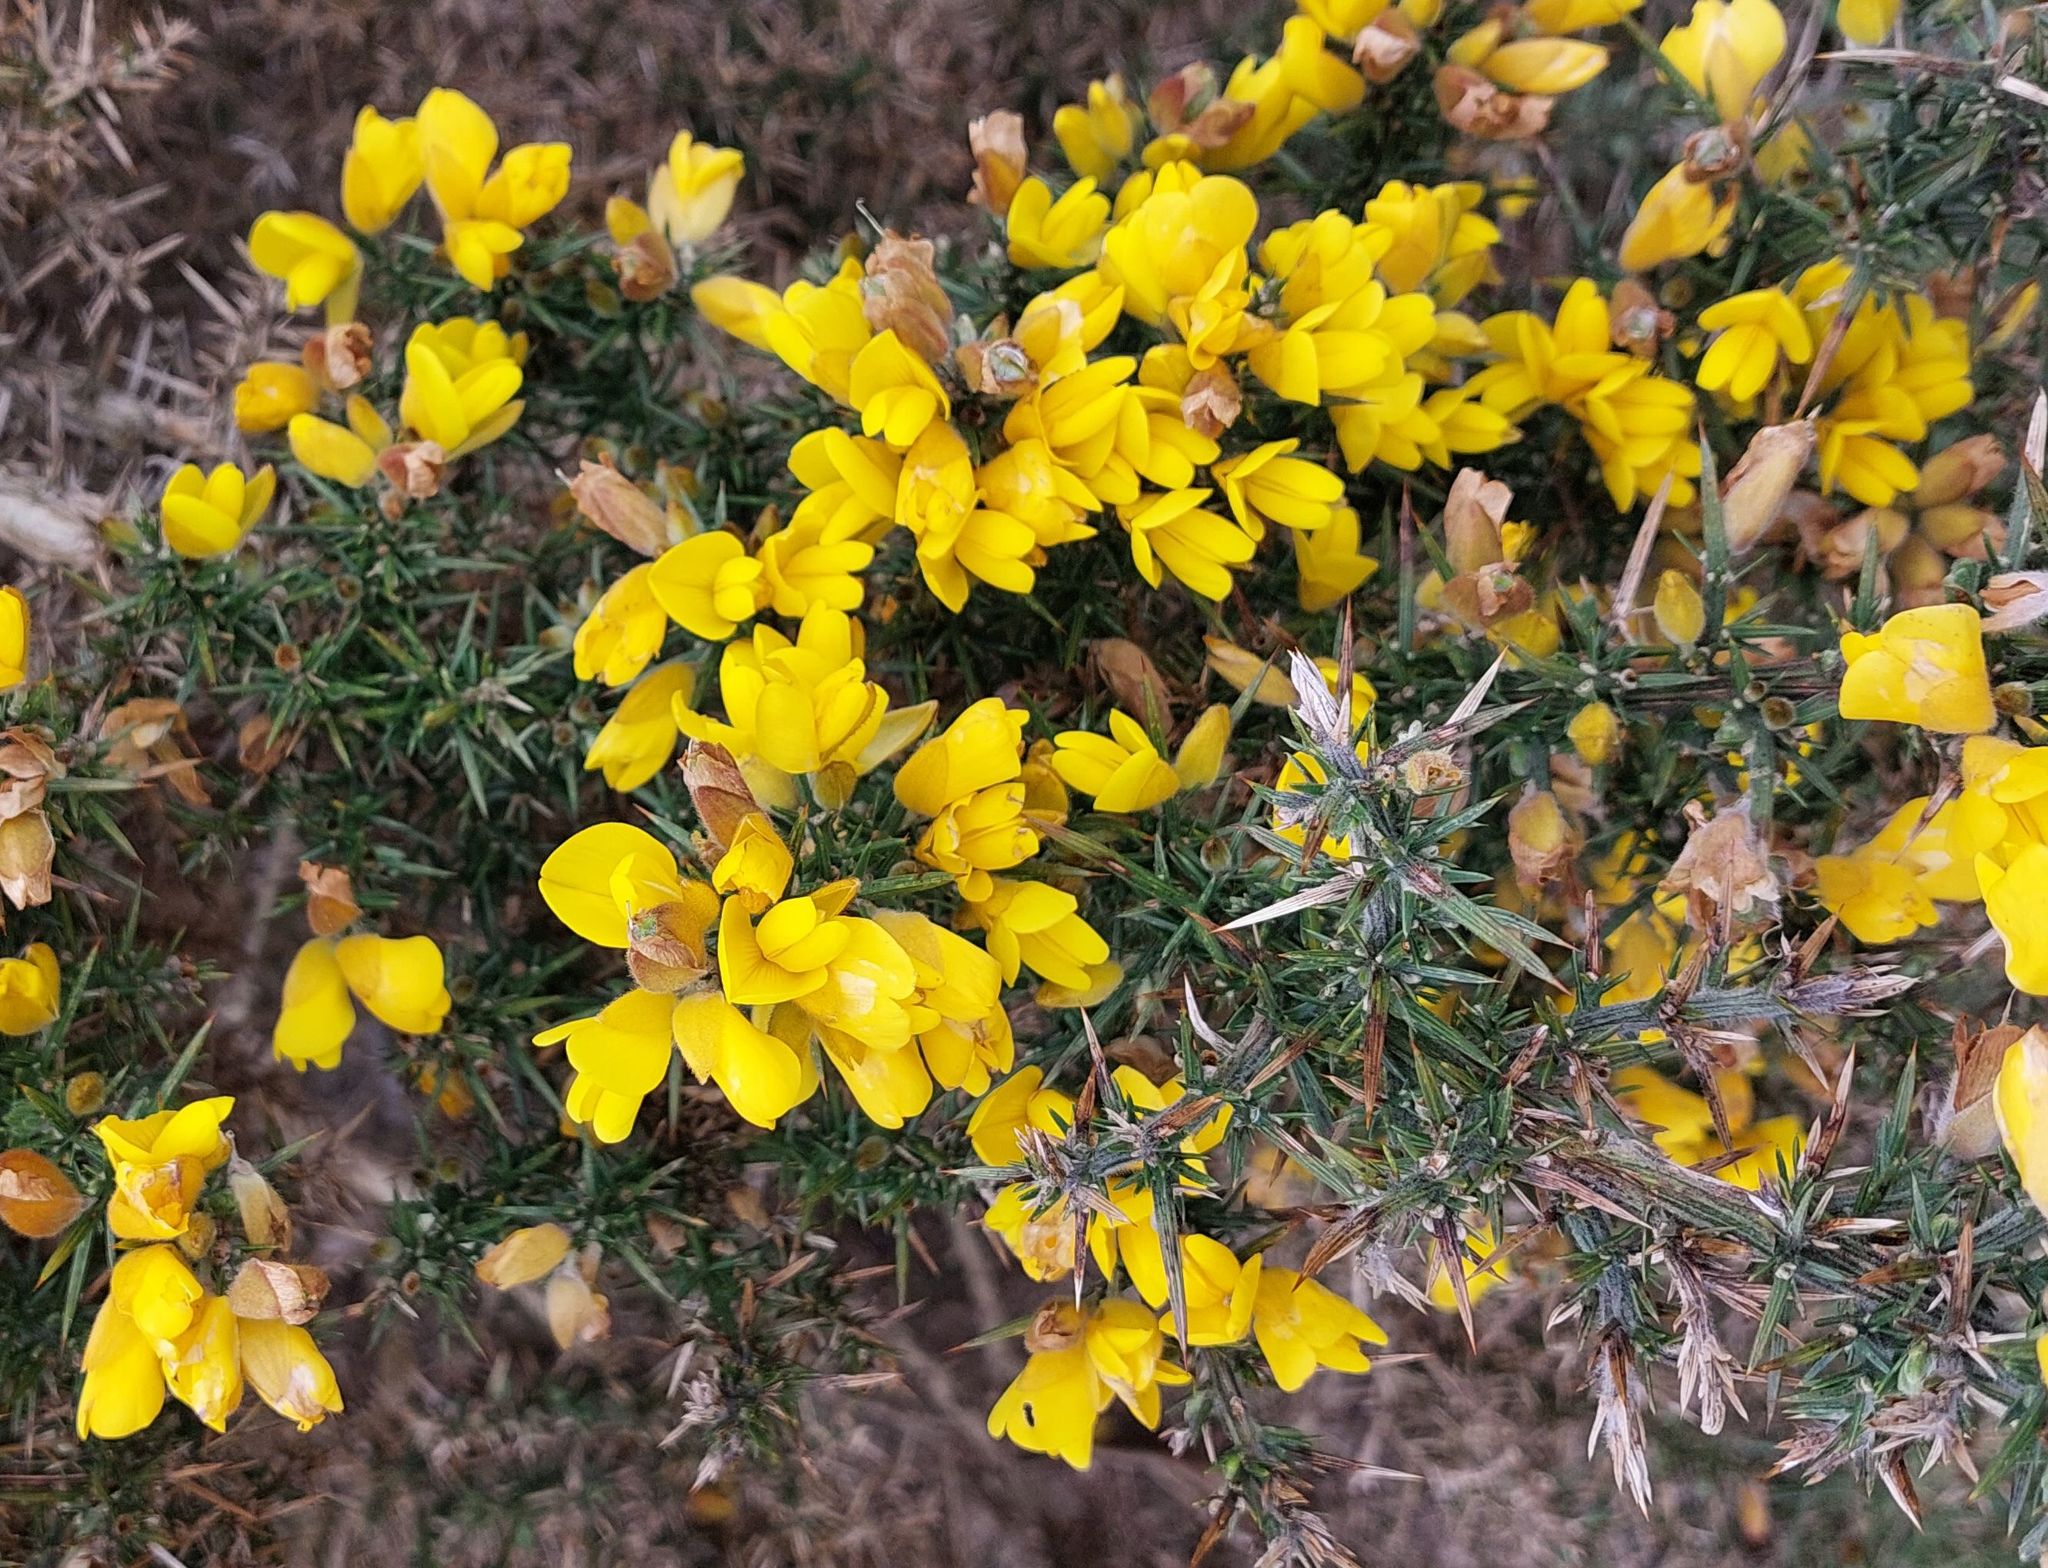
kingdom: Plantae
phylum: Tracheophyta
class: Magnoliopsida
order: Fabales
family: Fabaceae
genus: Ulex
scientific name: Ulex europaeus
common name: Common gorse
